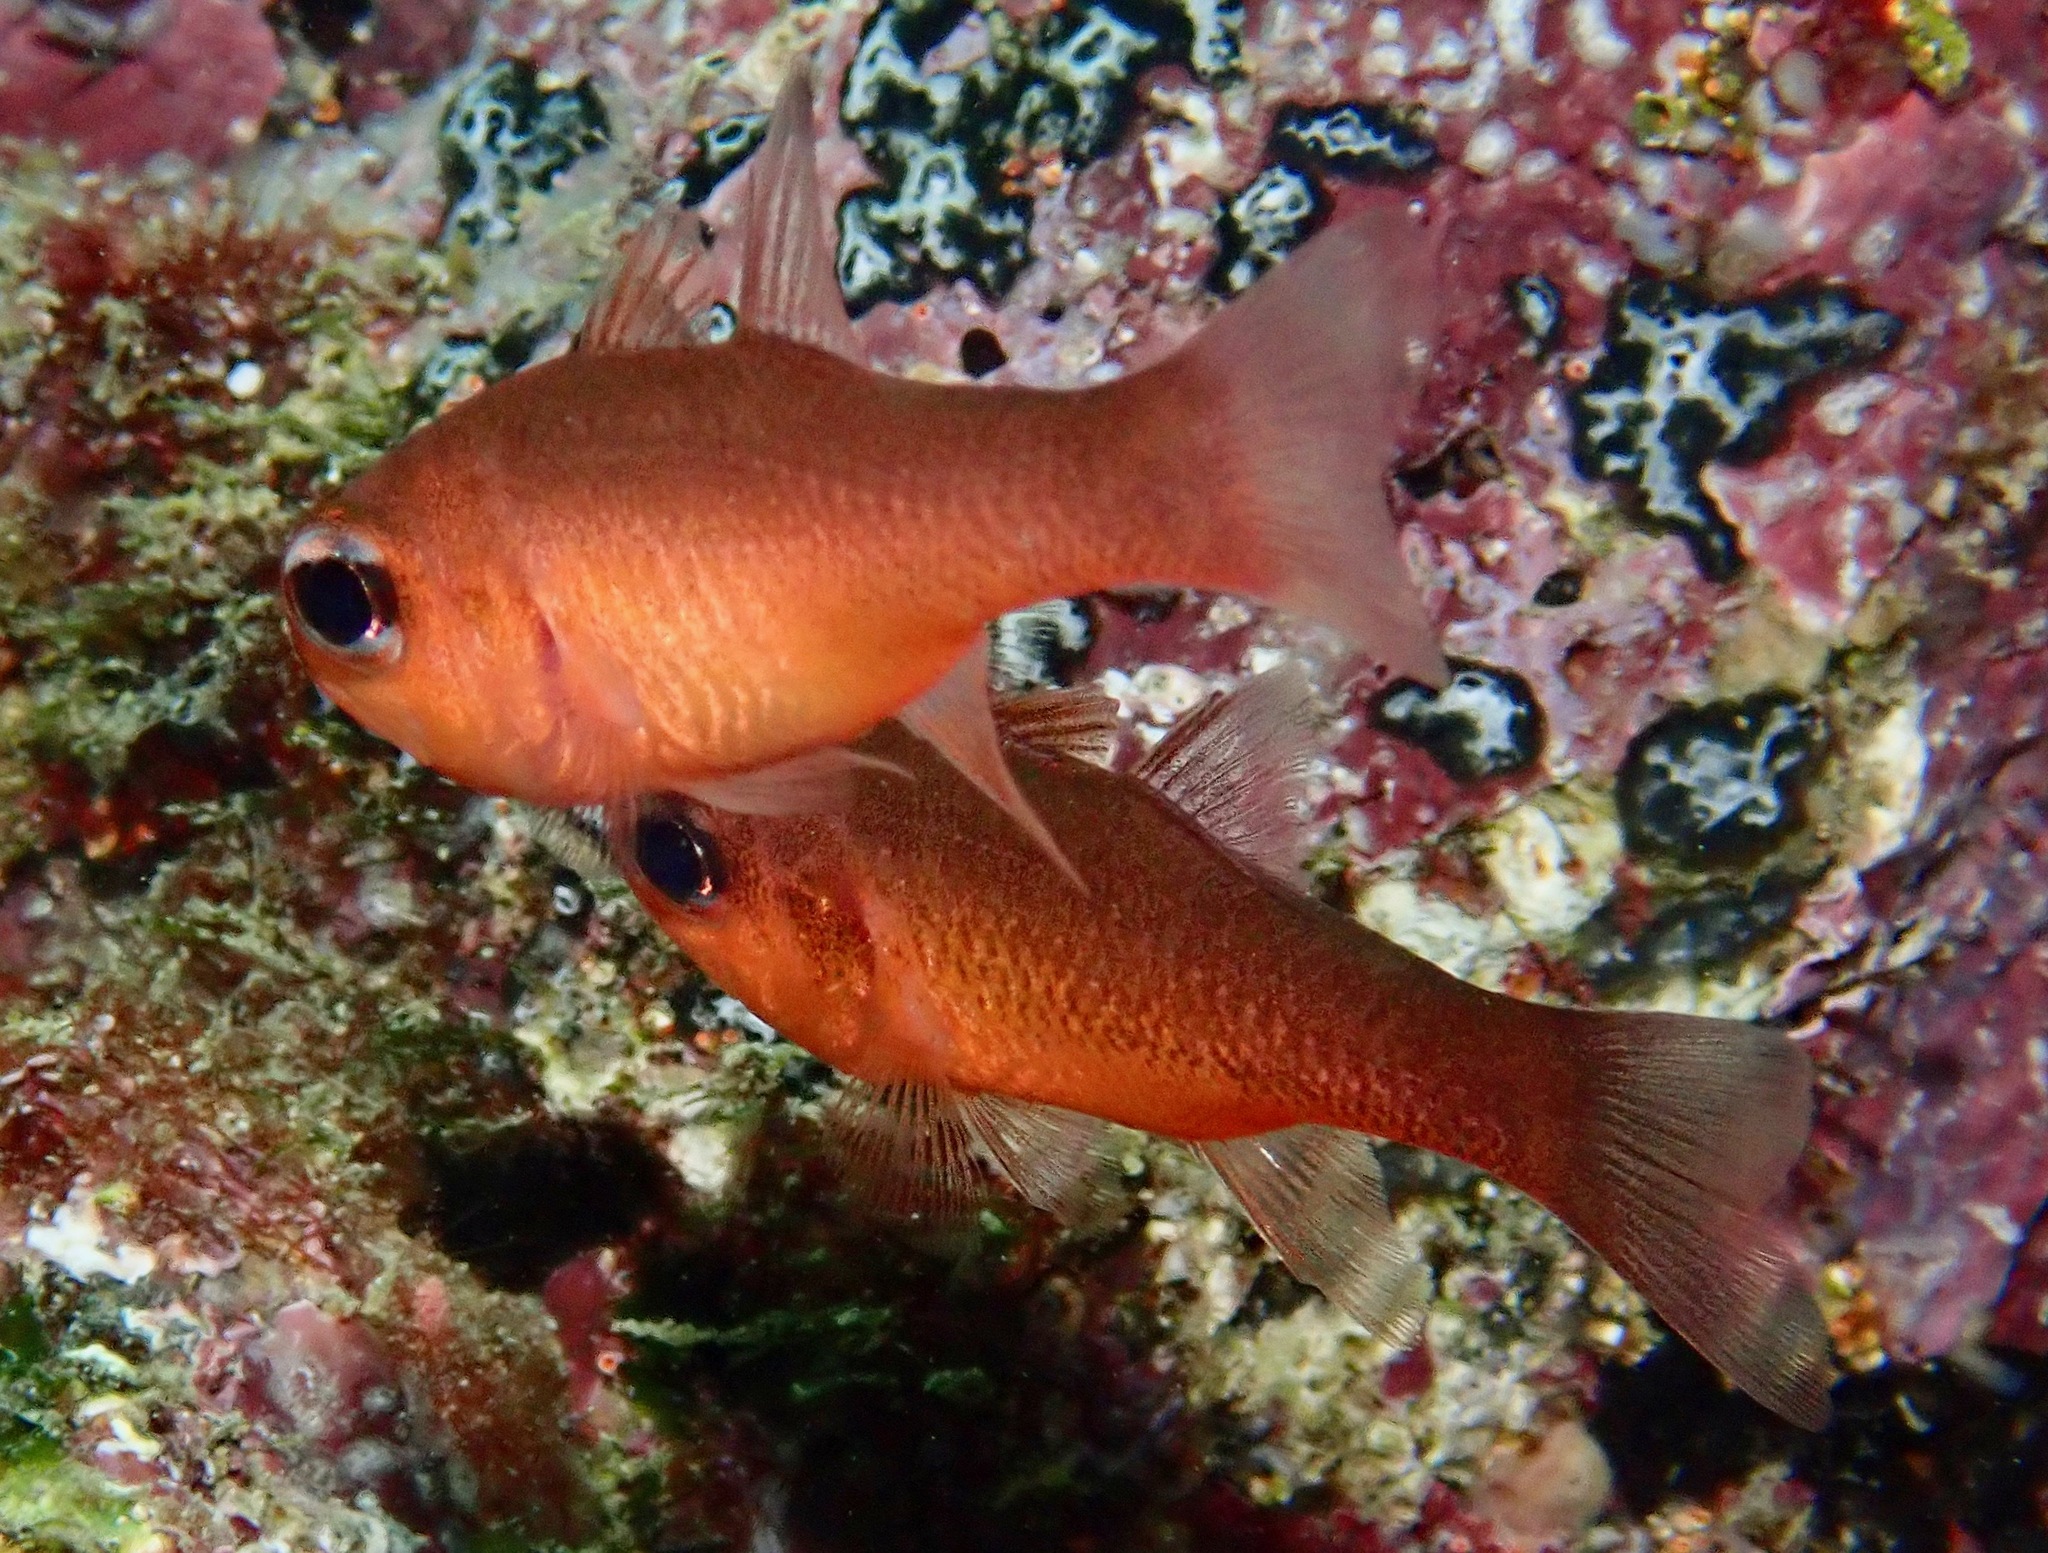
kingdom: Animalia
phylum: Chordata
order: Perciformes
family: Apogonidae
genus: Apogon
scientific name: Apogon atradorsatus
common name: Blacktip cardinalfish
